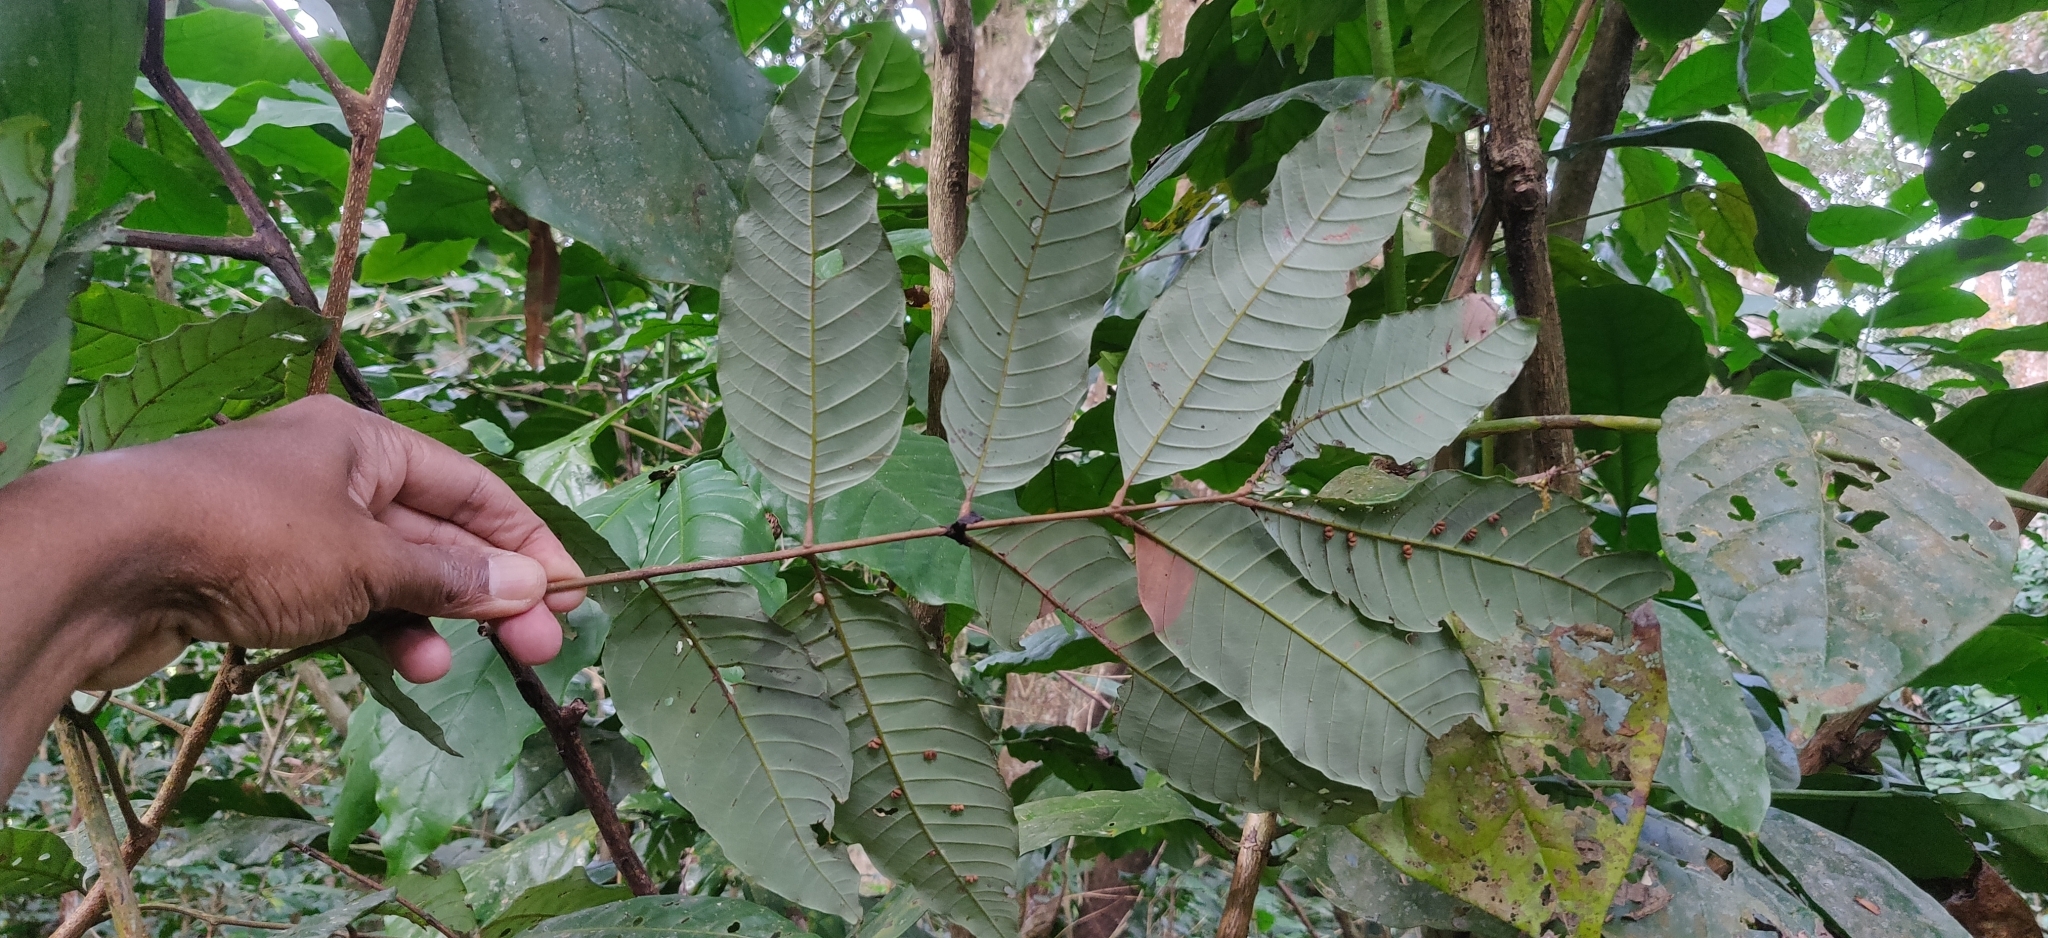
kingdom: Plantae
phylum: Tracheophyta
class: Magnoliopsida
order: Sapindales
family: Sapindaceae
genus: Dimocarpus
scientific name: Dimocarpus longan
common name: Longan
